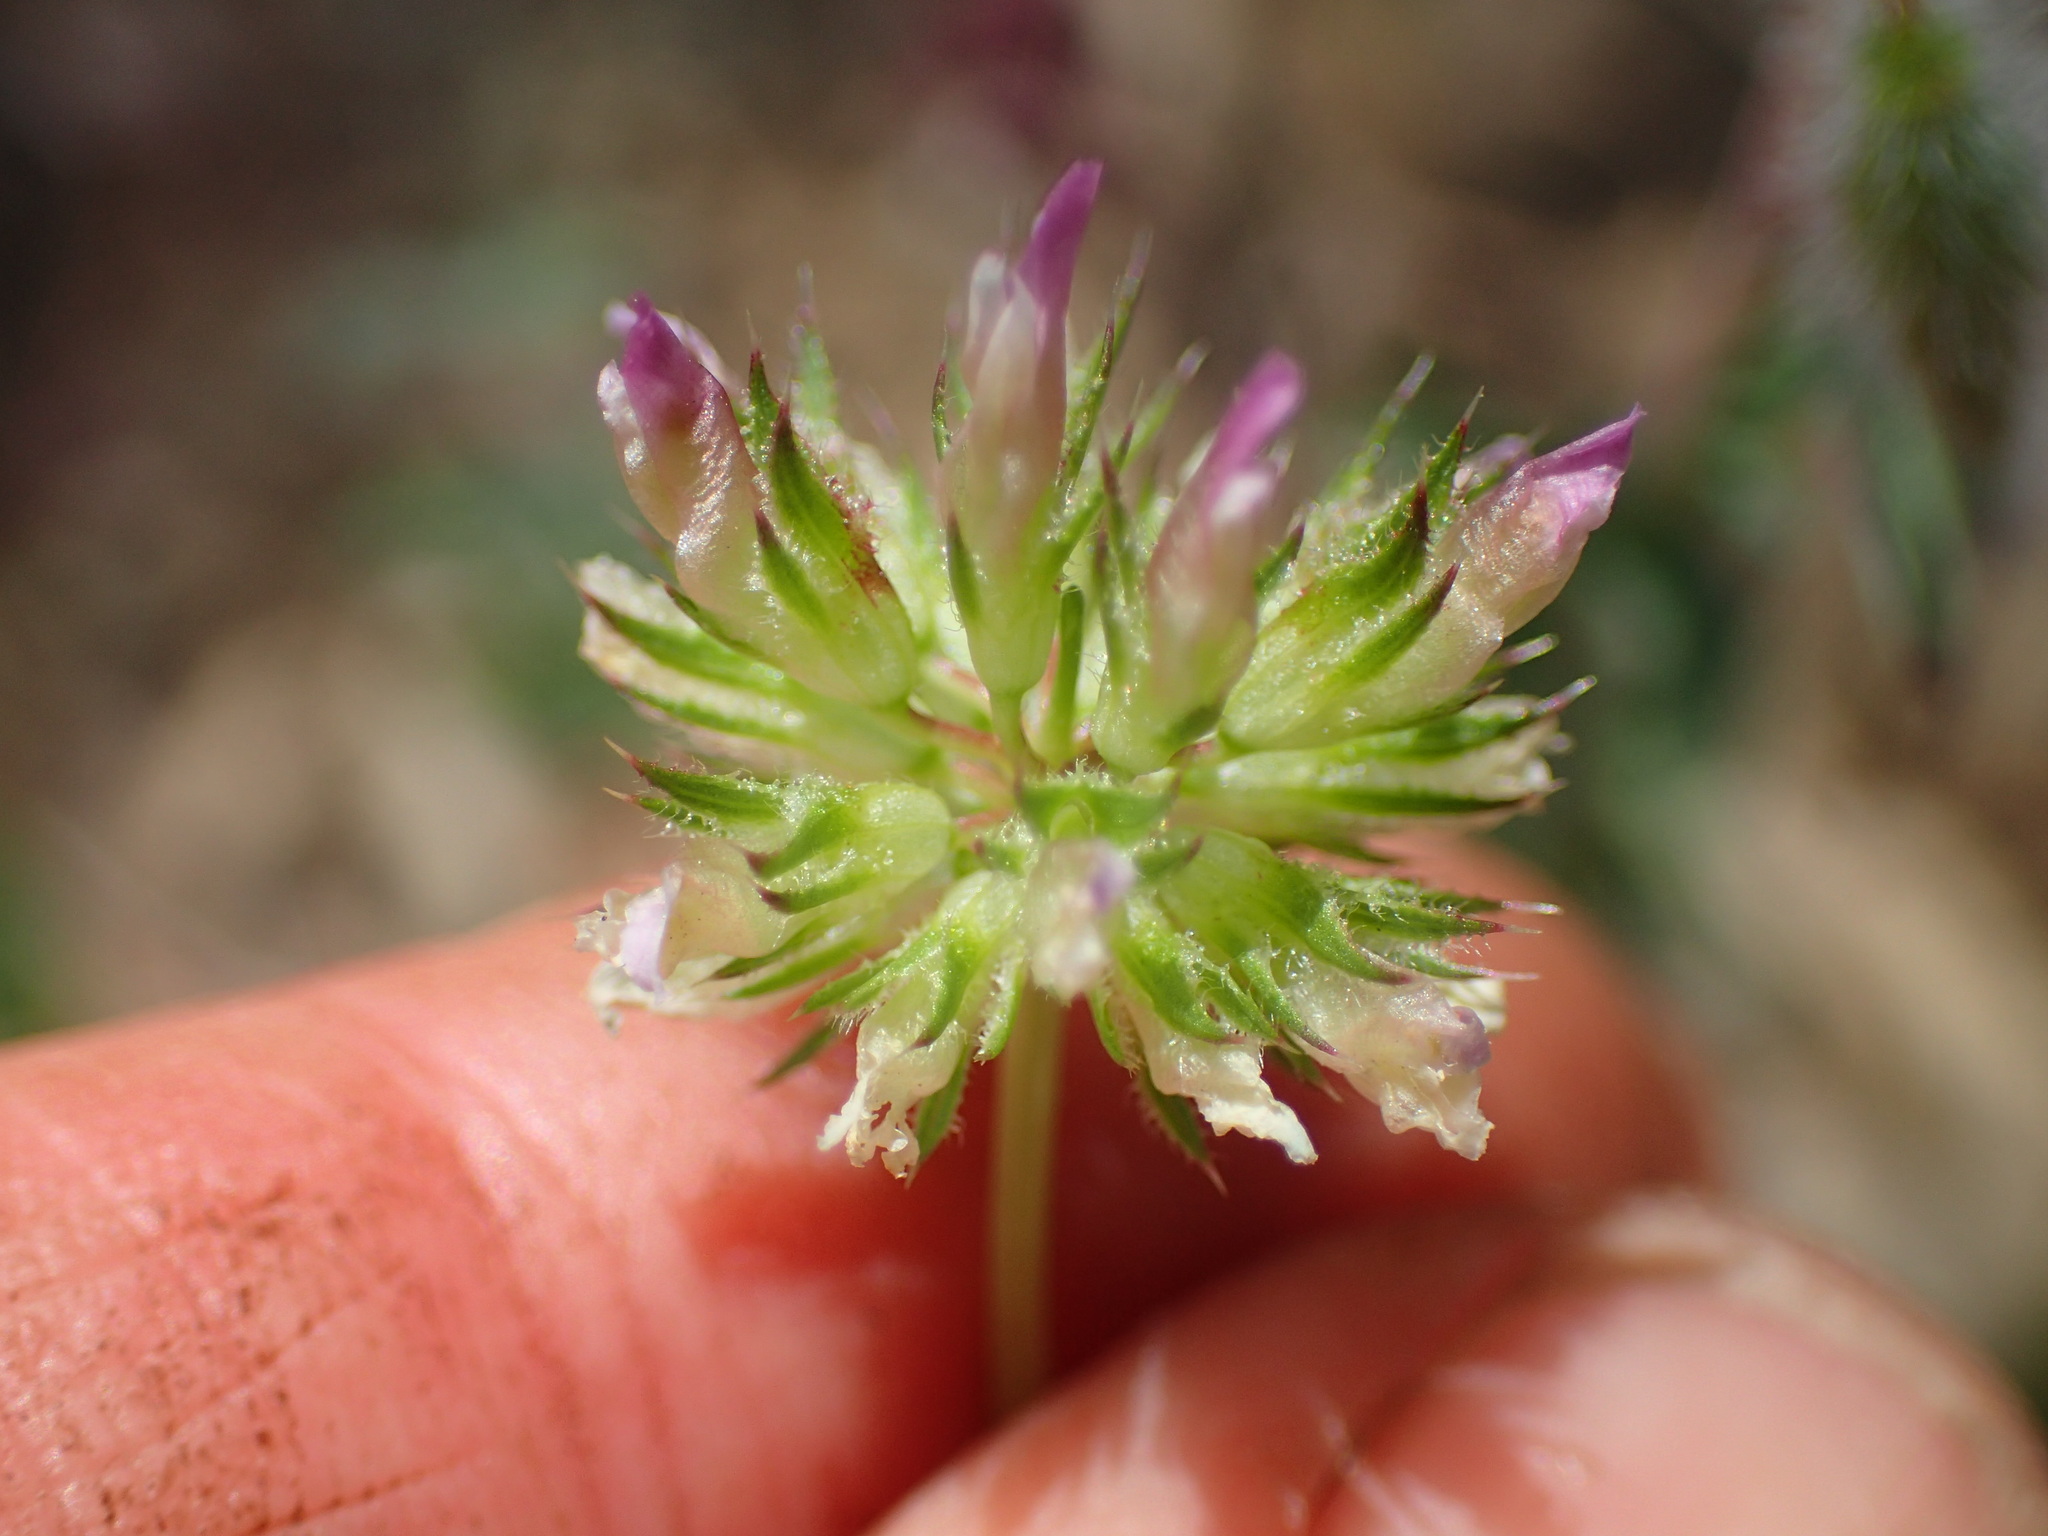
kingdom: Plantae
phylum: Tracheophyta
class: Magnoliopsida
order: Fabales
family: Fabaceae
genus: Trifolium
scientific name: Trifolium ciliolatum
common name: Foothill clover
